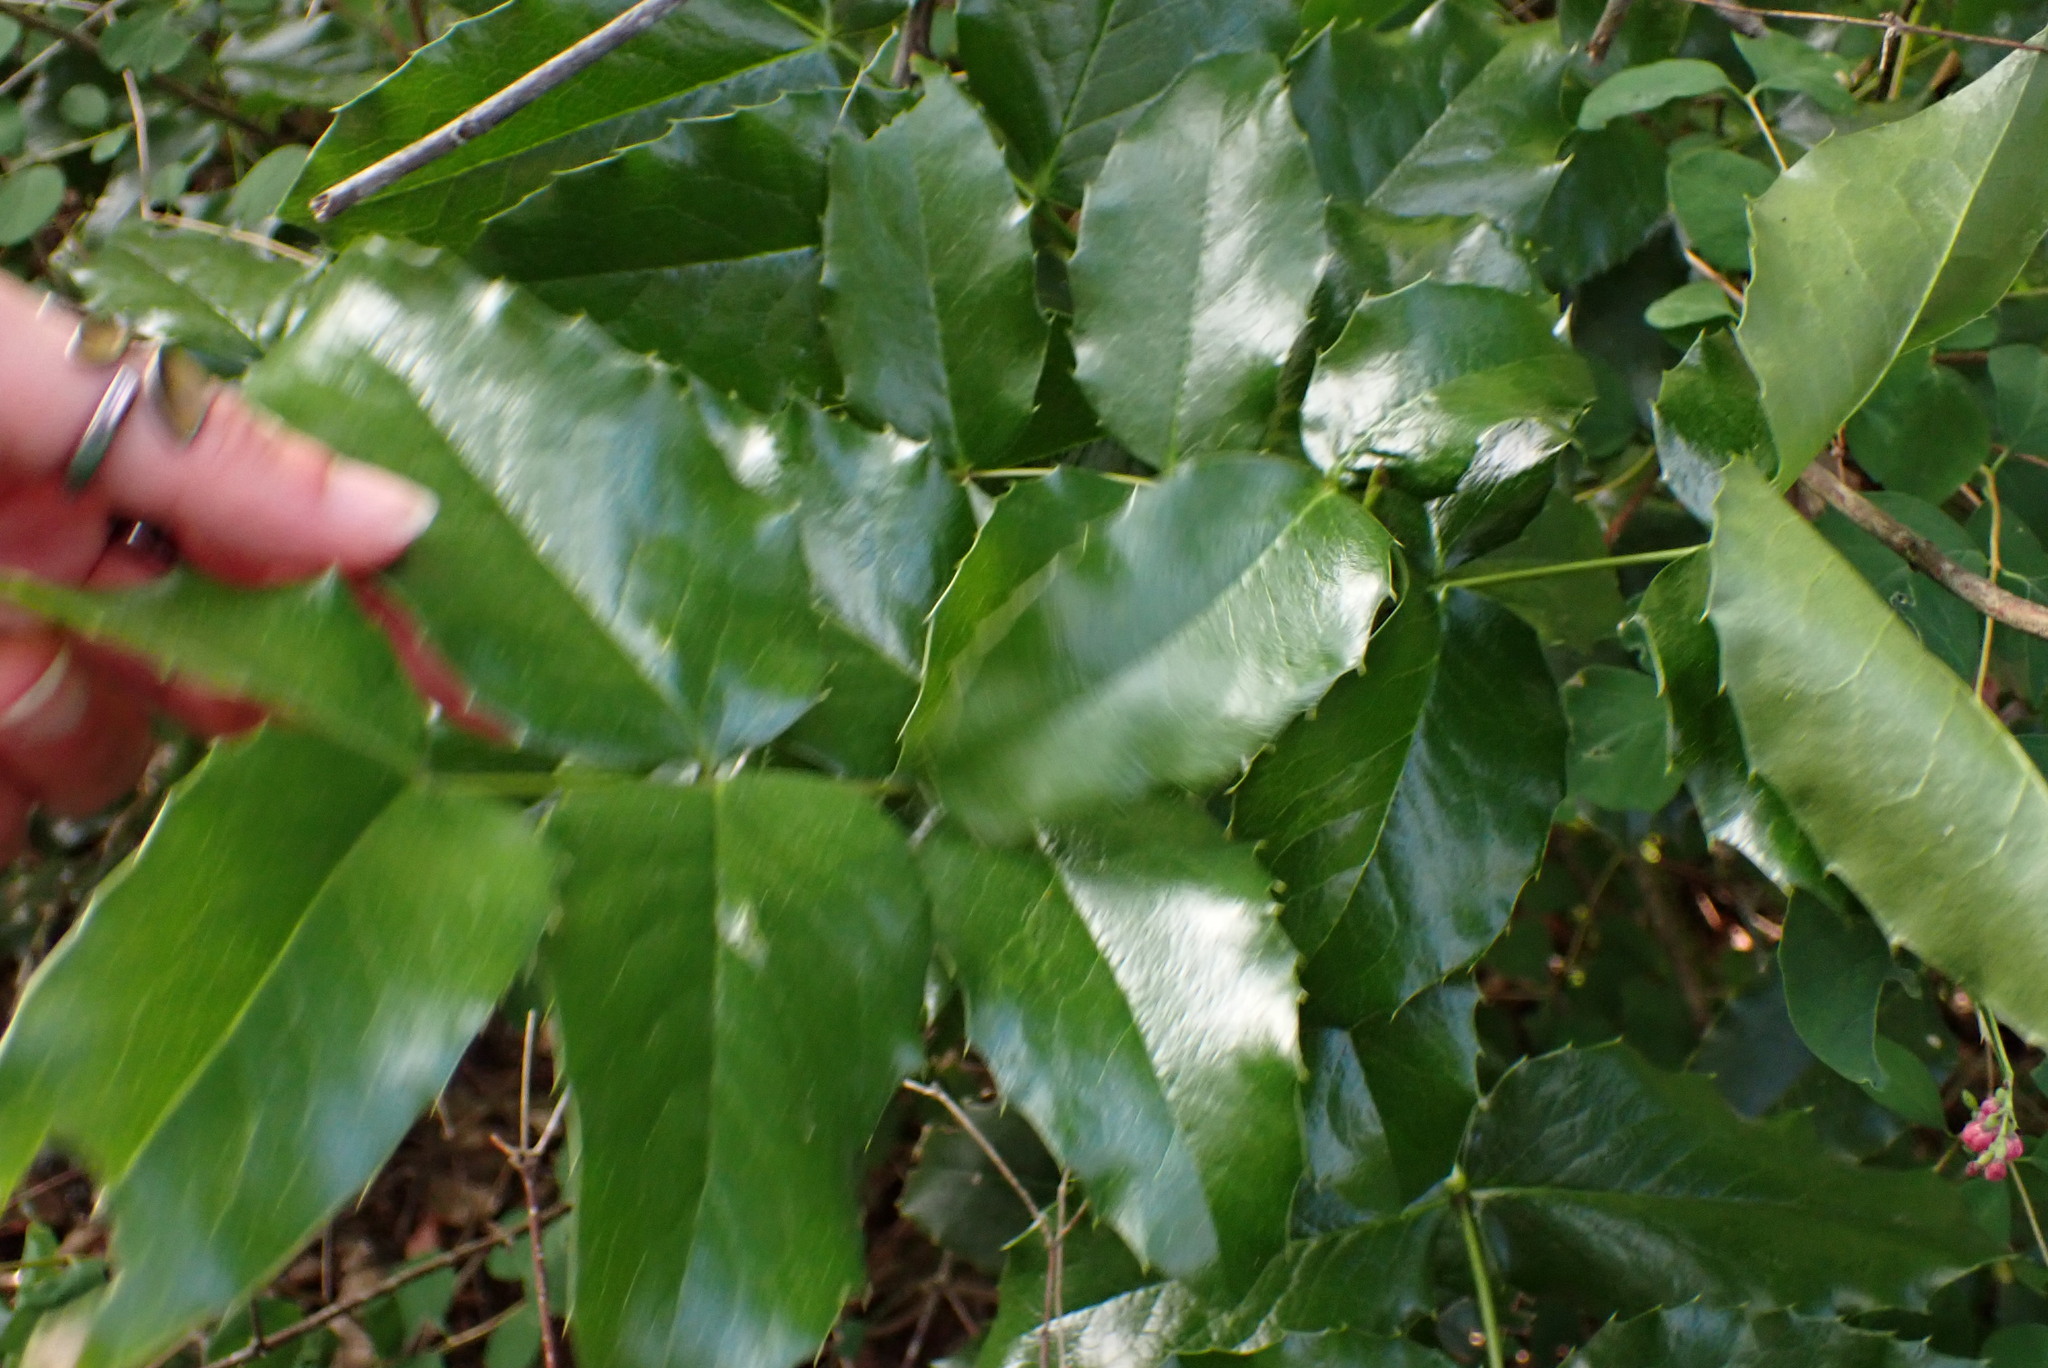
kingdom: Plantae
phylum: Tracheophyta
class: Magnoliopsida
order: Ranunculales
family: Berberidaceae
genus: Mahonia
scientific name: Mahonia aquifolium
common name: Oregon-grape
